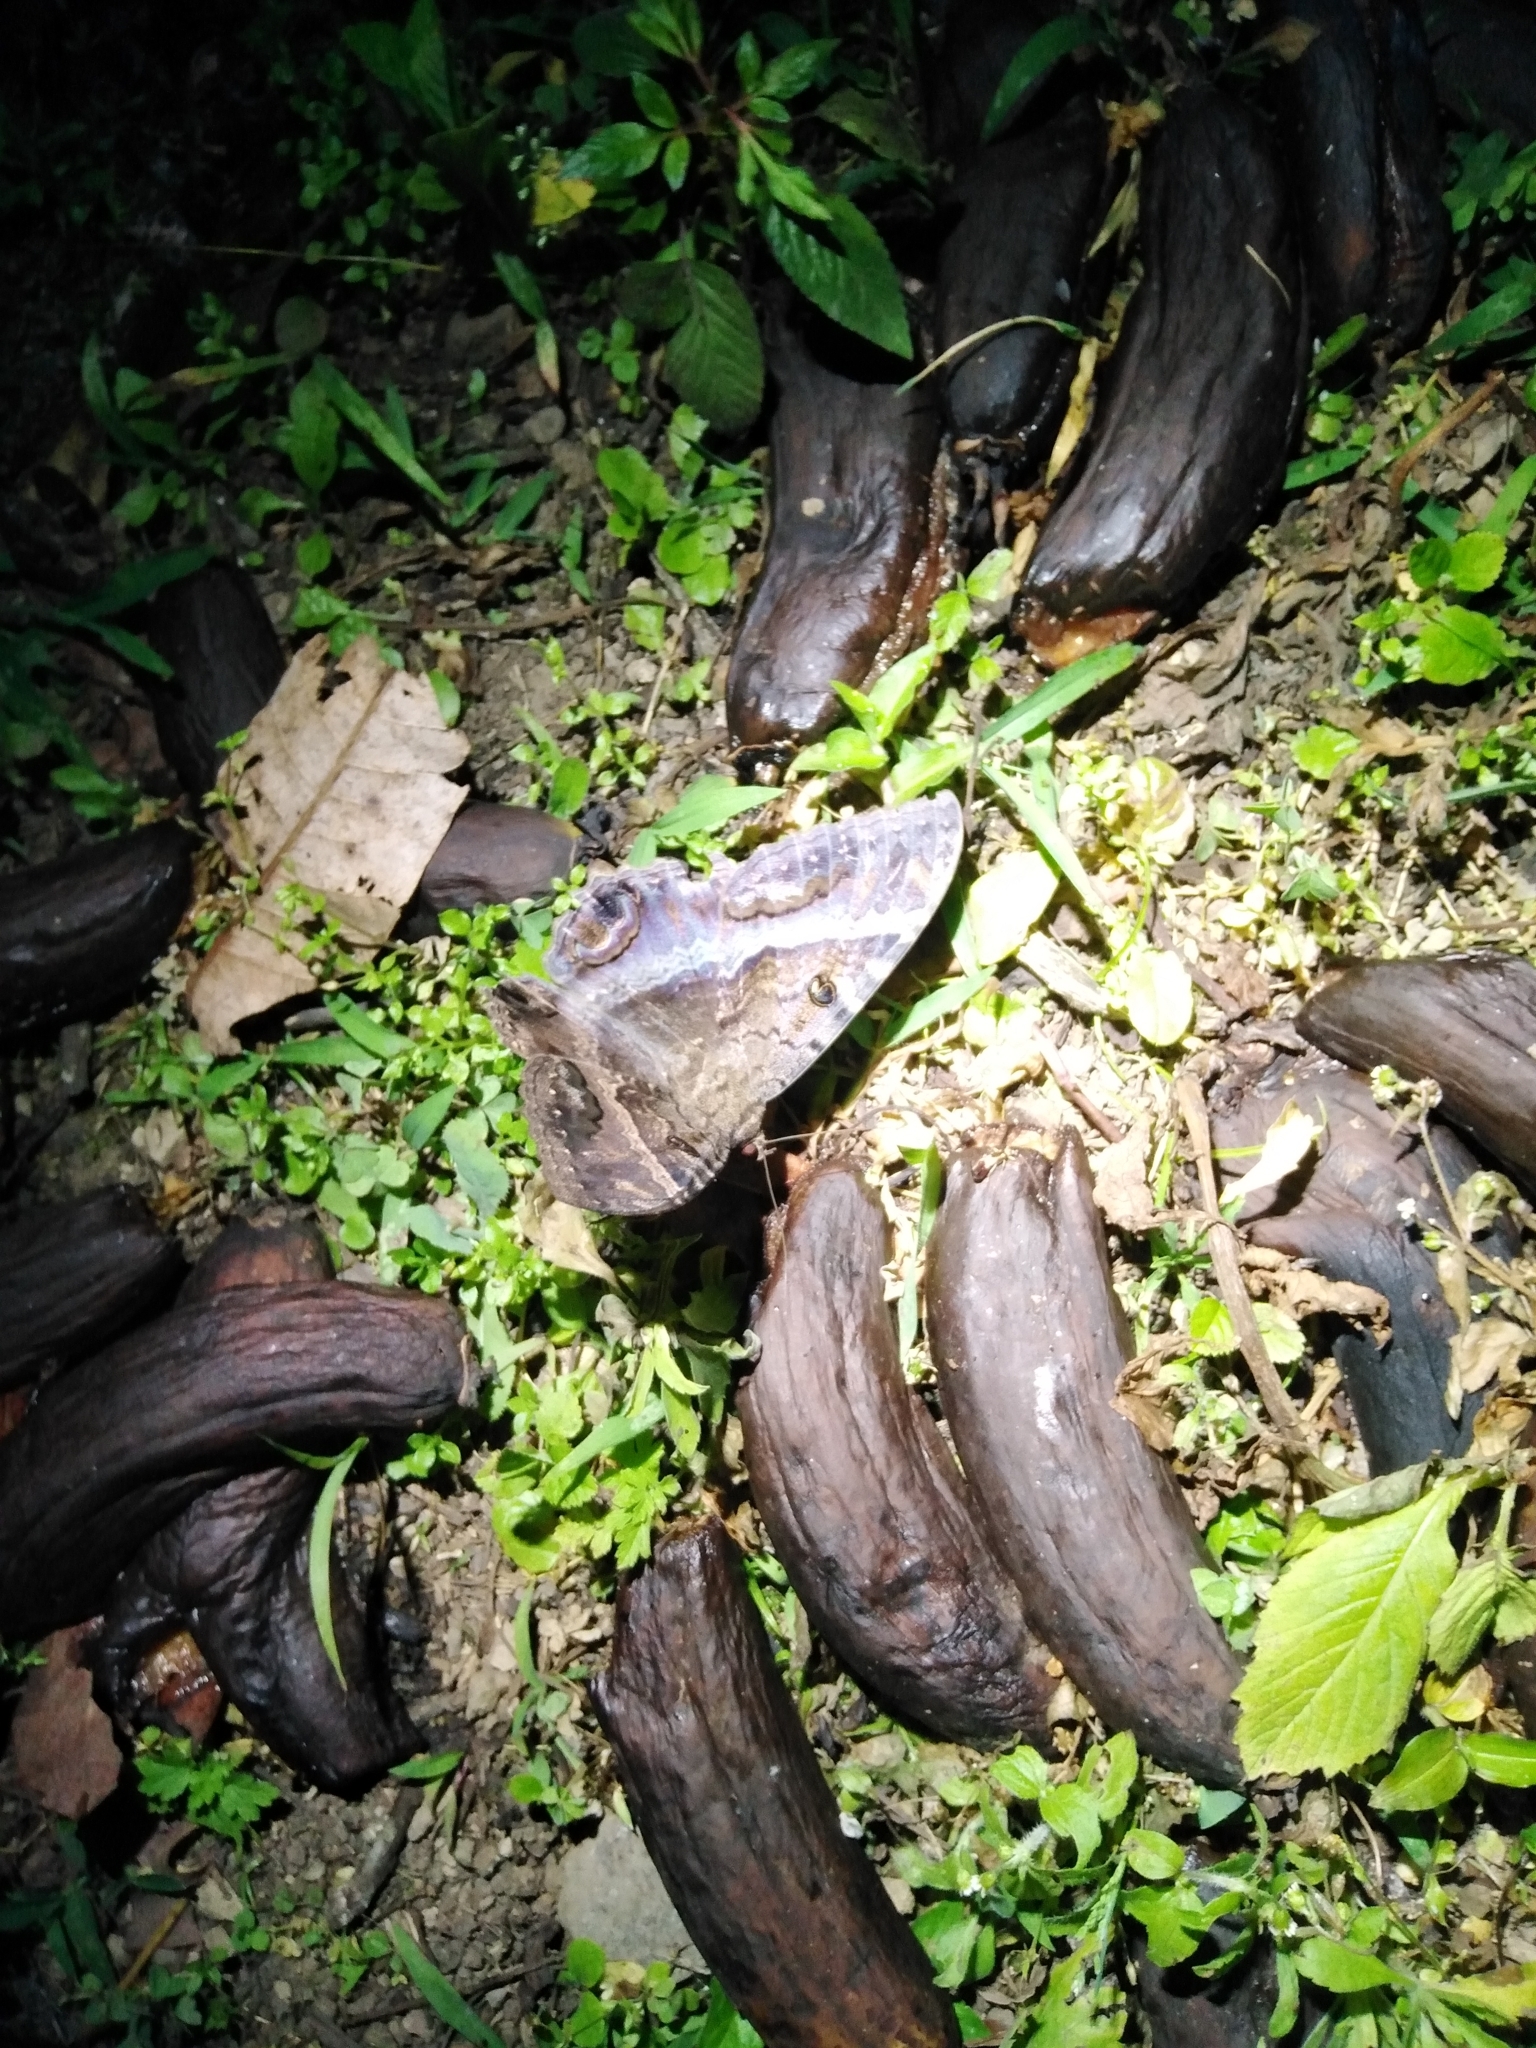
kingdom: Animalia
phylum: Arthropoda
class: Insecta
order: Lepidoptera
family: Erebidae
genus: Ascalapha
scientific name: Ascalapha odorata
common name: Black witch
